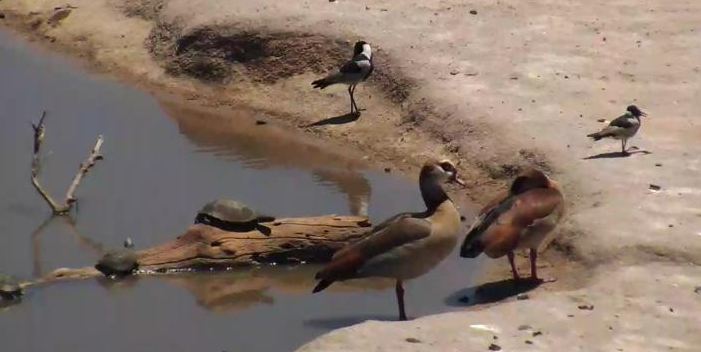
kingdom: Animalia
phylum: Chordata
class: Aves
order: Anseriformes
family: Anatidae
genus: Alopochen
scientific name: Alopochen aegyptiaca
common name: Egyptian goose
